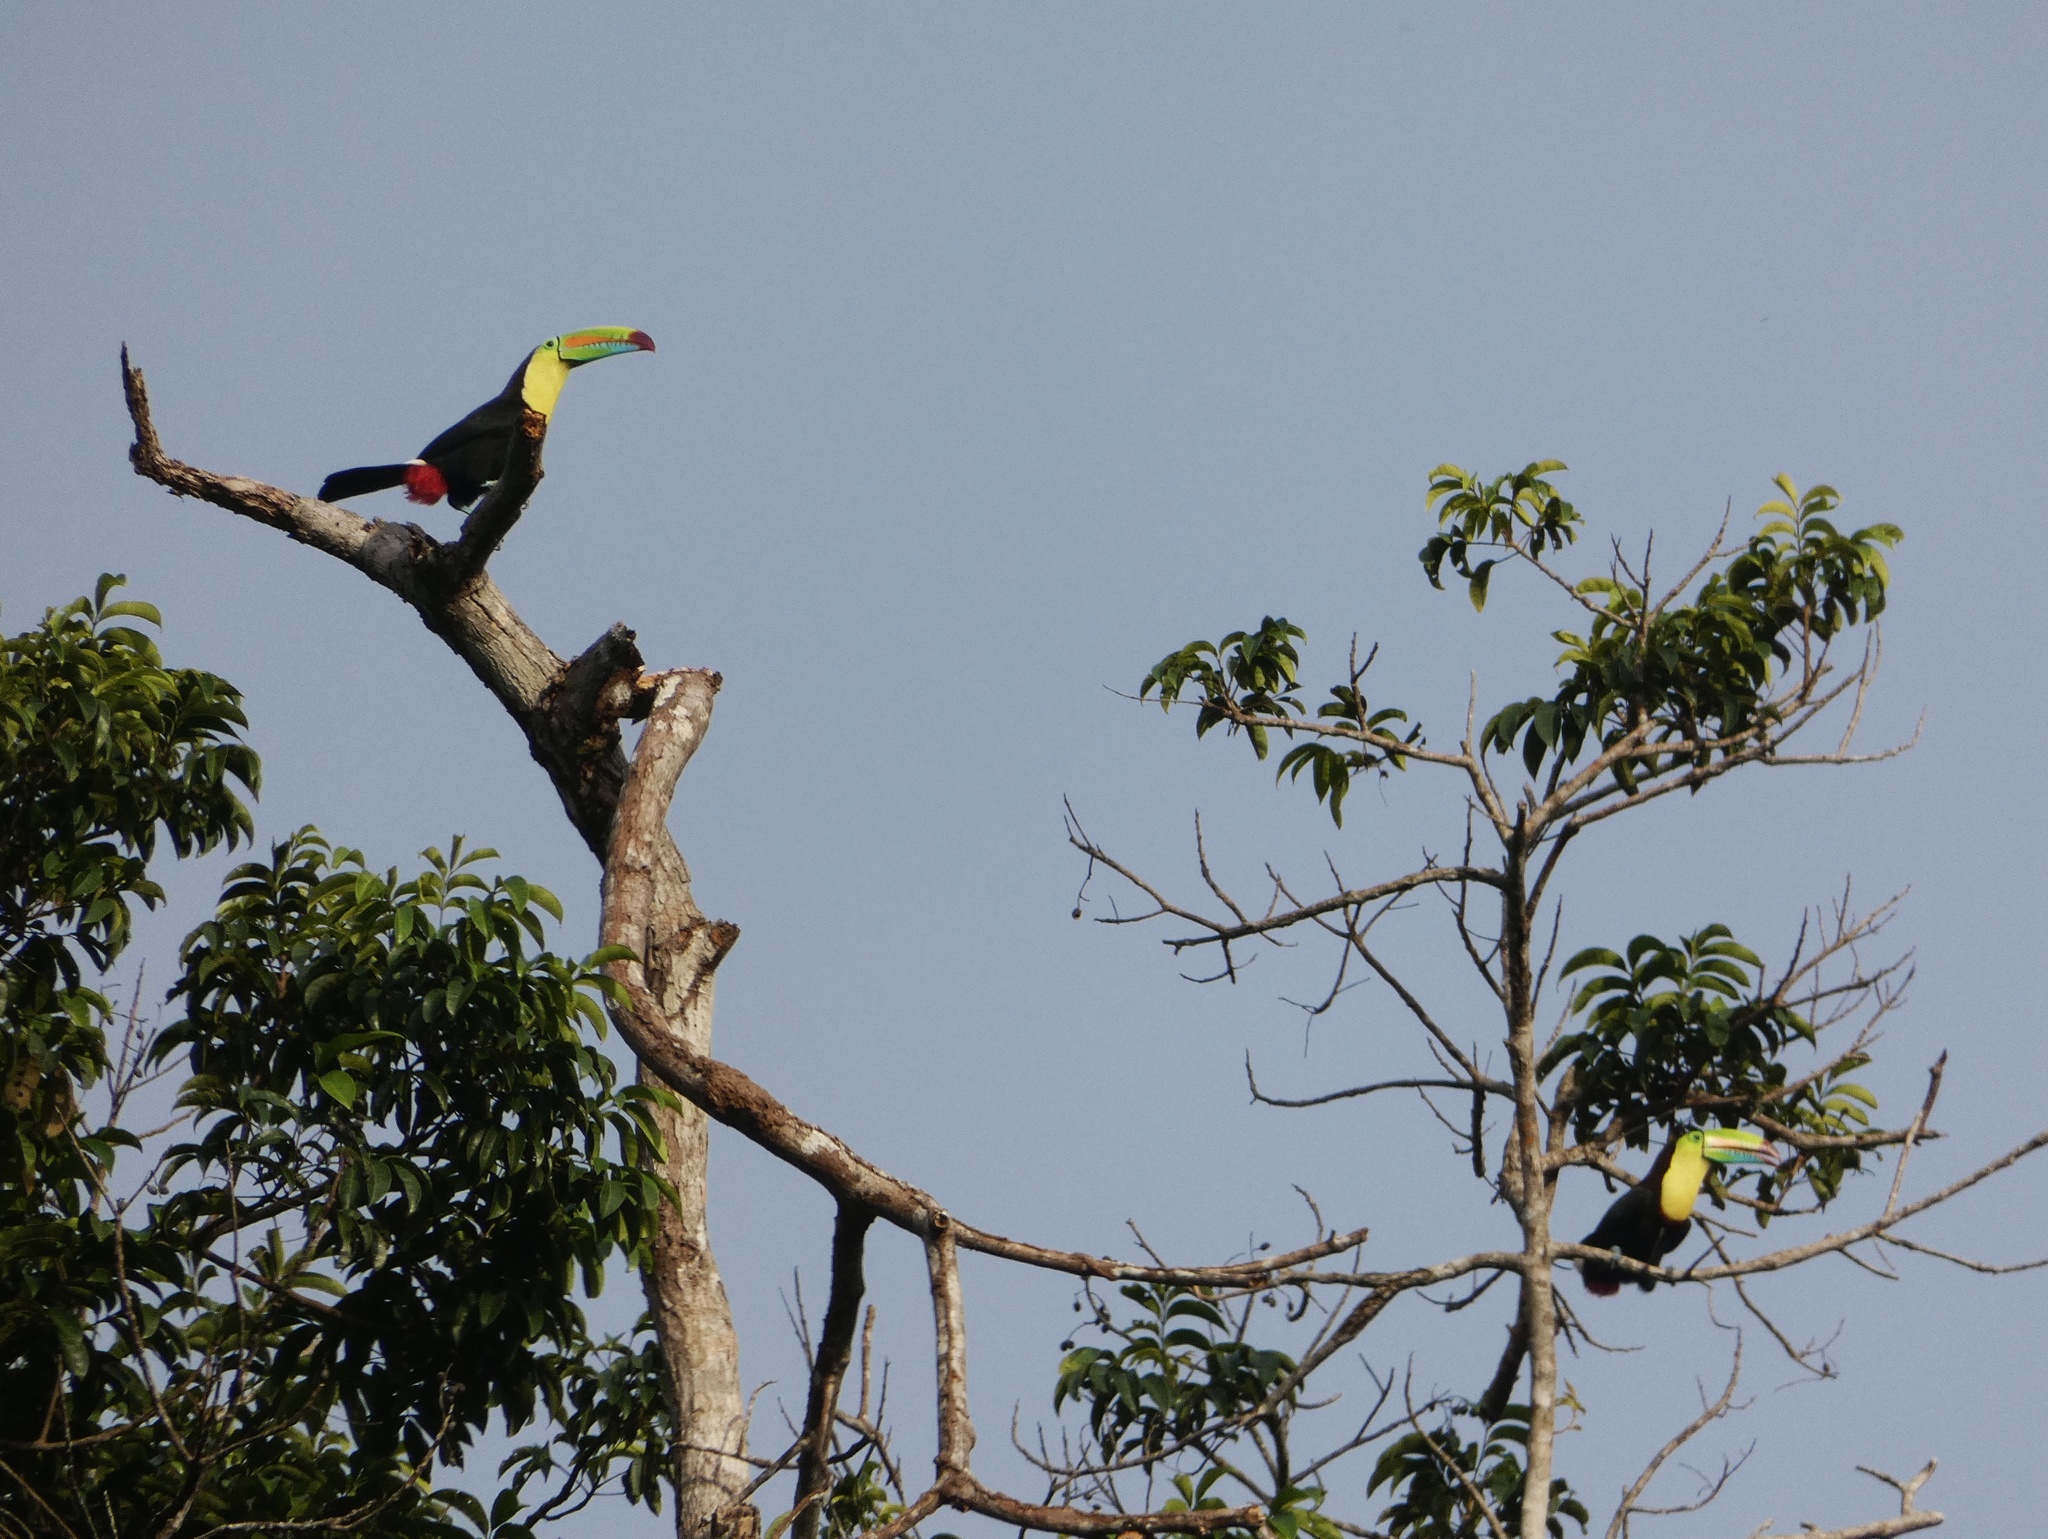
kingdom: Animalia
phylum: Chordata
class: Aves
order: Piciformes
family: Ramphastidae
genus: Ramphastos
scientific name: Ramphastos sulfuratus
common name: Keel-billed toucan
